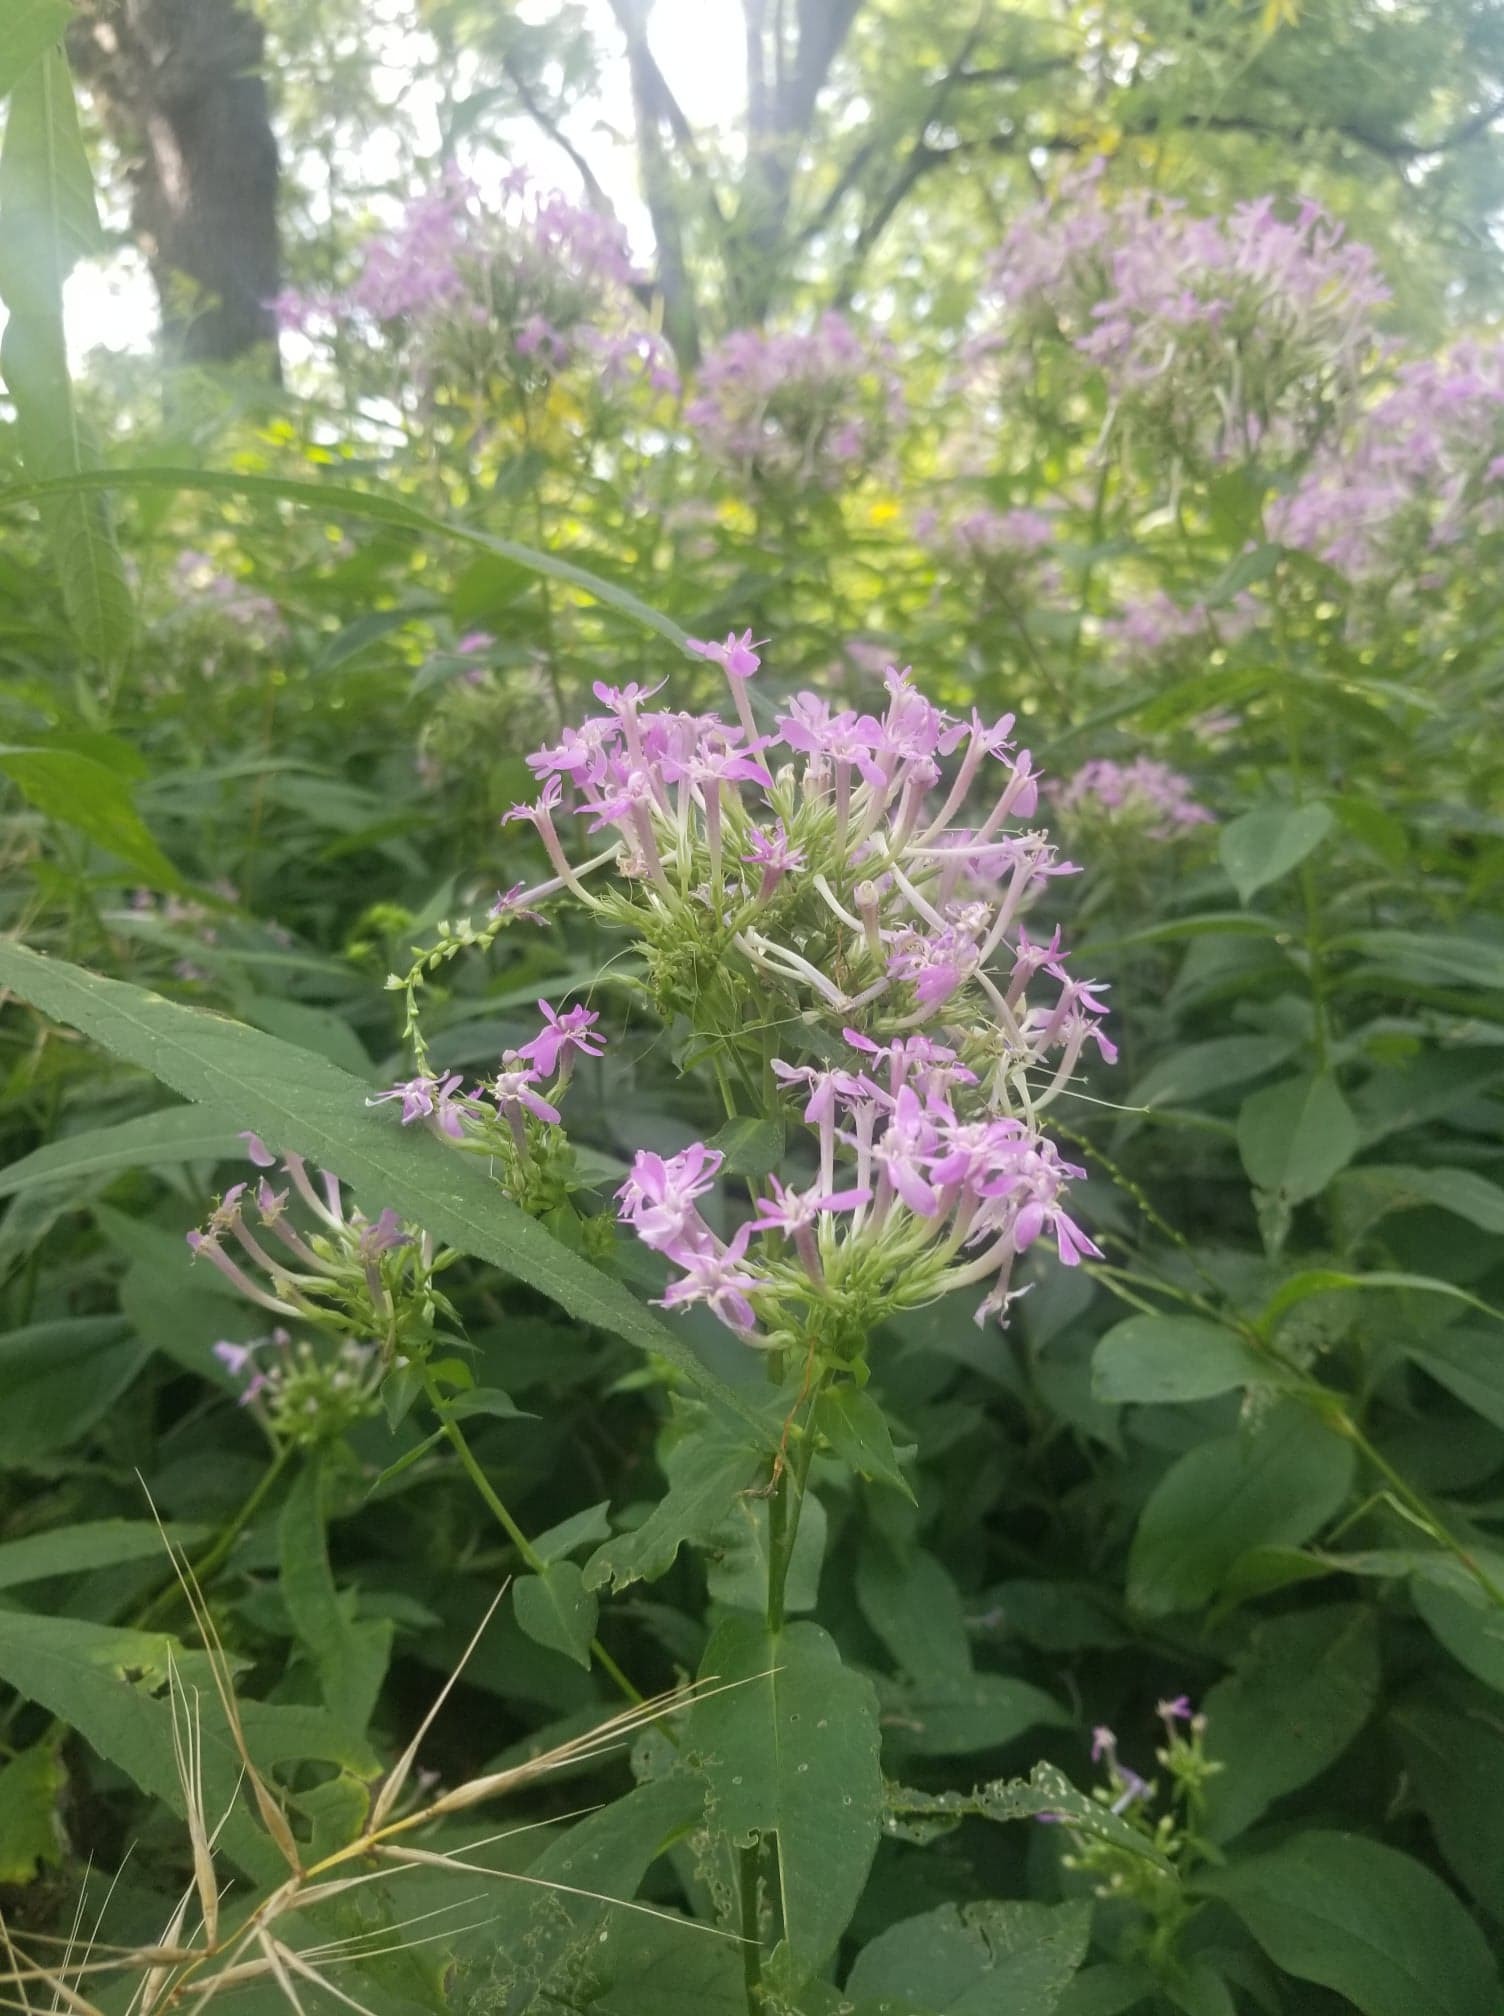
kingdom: Plantae
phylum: Tracheophyta
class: Magnoliopsida
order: Ericales
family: Polemoniaceae
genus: Phlox
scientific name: Phlox paniculata
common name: Fall phlox
